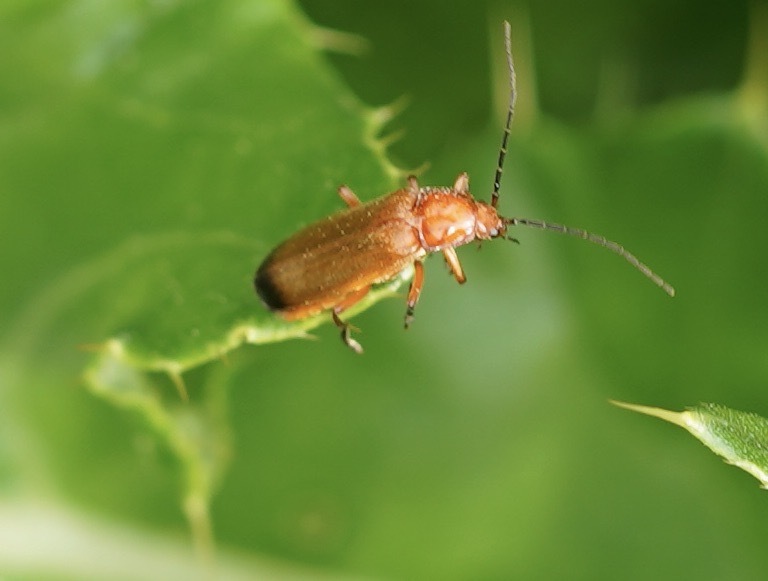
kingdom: Animalia
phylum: Arthropoda
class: Insecta
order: Coleoptera
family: Cantharidae
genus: Rhagonycha
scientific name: Rhagonycha fulva
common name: Common red soldier beetle
